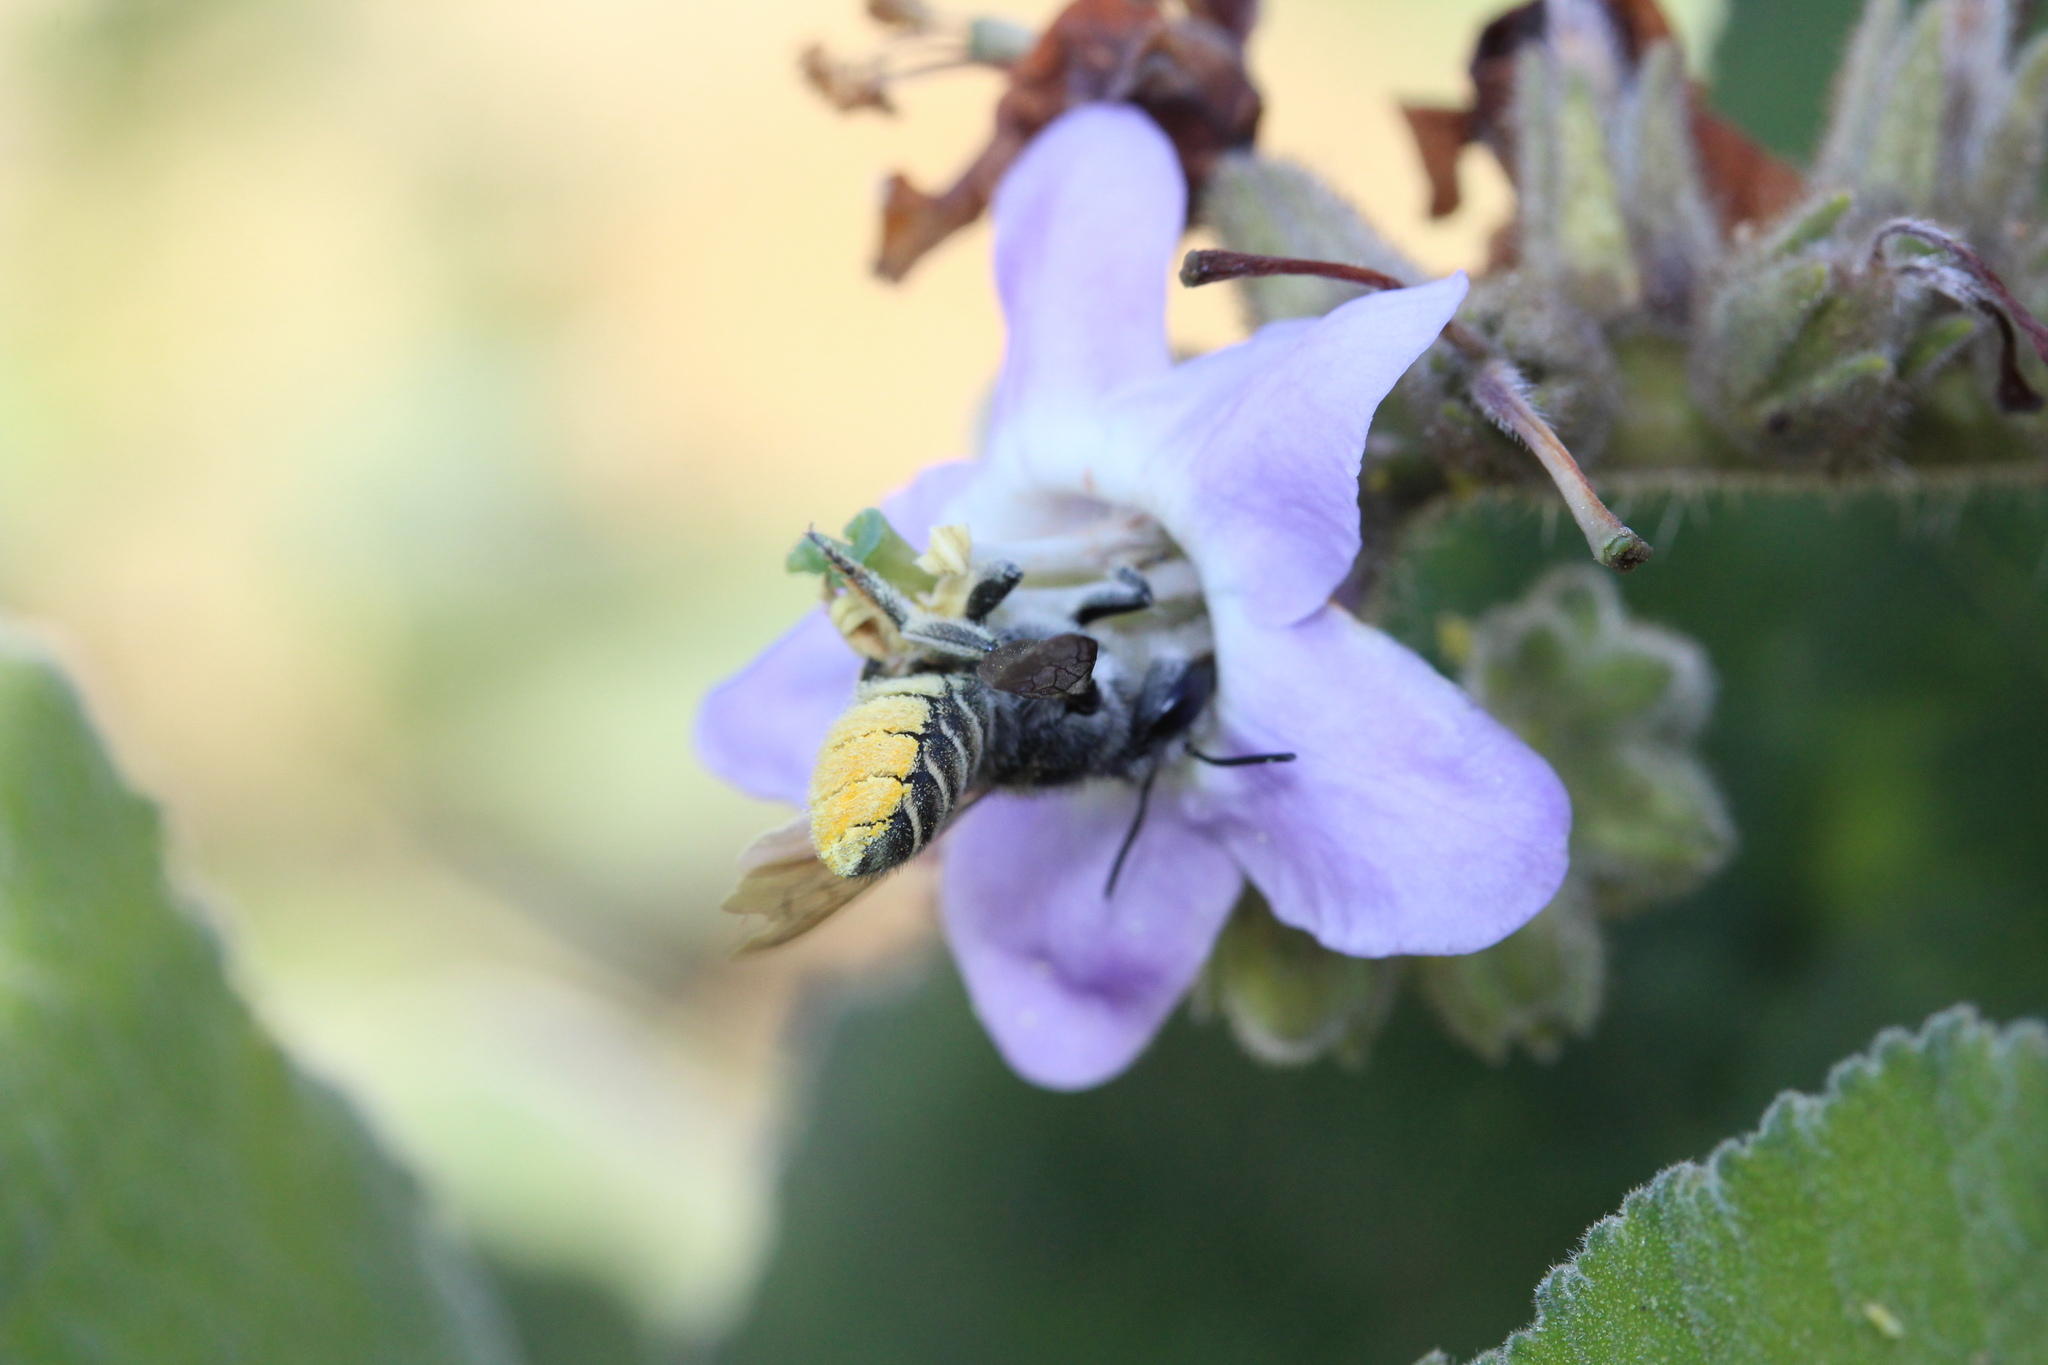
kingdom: Plantae
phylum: Tracheophyta
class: Magnoliopsida
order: Boraginales
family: Namaceae
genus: Wigandia
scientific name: Wigandia urens
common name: Caracus wigandia
